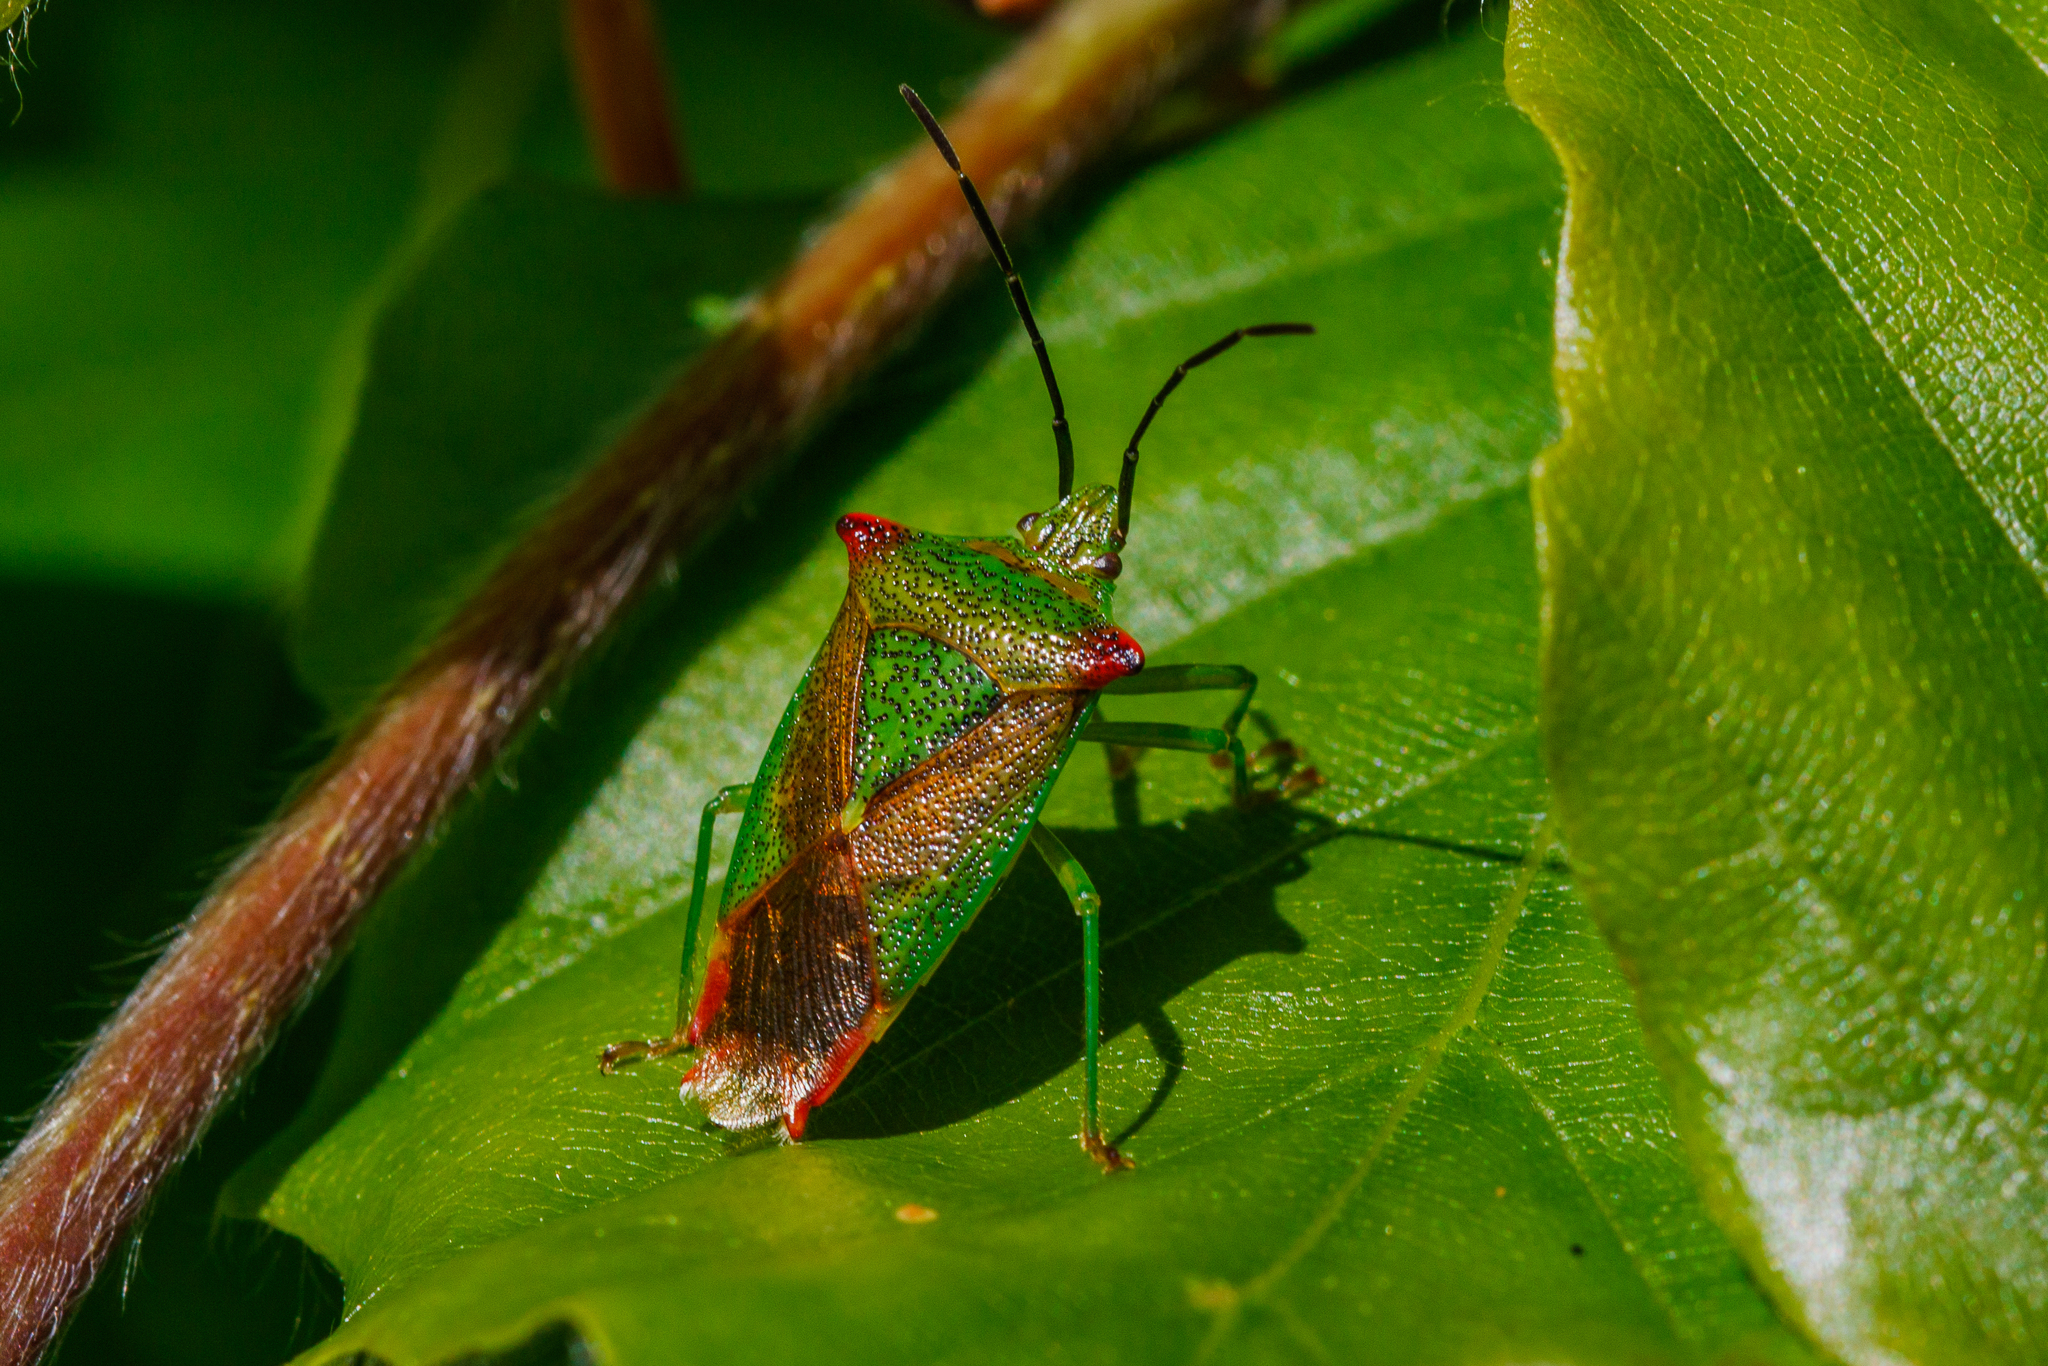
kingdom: Animalia
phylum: Arthropoda
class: Insecta
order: Hemiptera
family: Acanthosomatidae
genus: Acanthosoma
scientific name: Acanthosoma haemorrhoidale
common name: Hawthorn shieldbug
